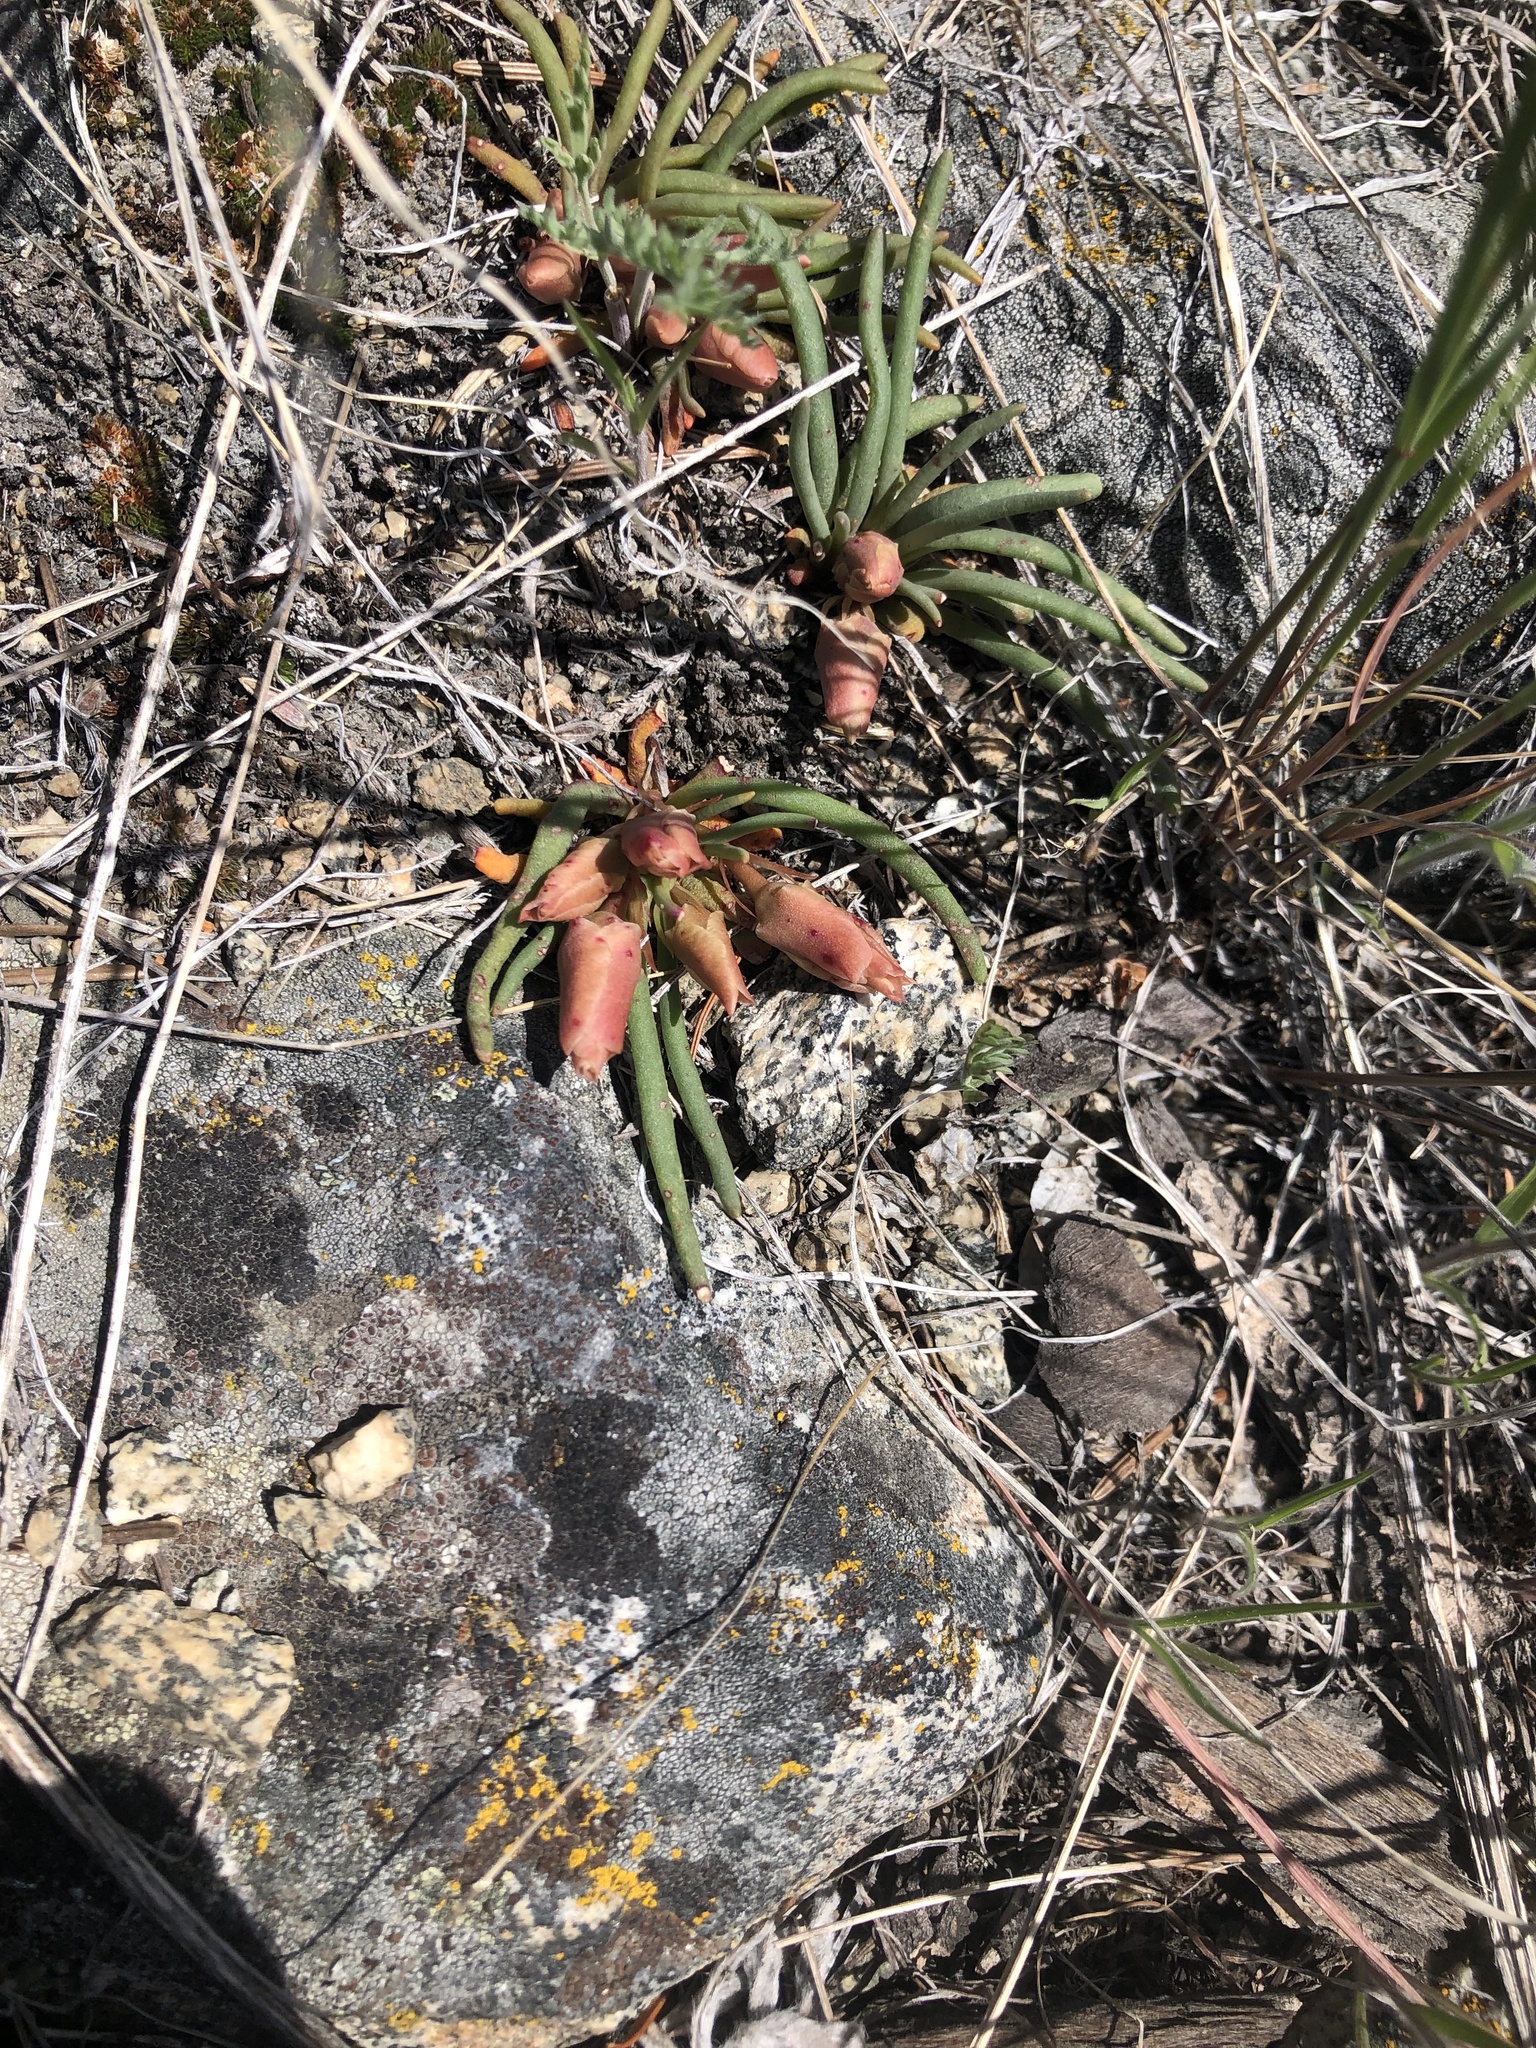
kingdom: Plantae
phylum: Tracheophyta
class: Magnoliopsida
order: Caryophyllales
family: Montiaceae
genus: Lewisia
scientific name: Lewisia rediviva
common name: Bitter-root
